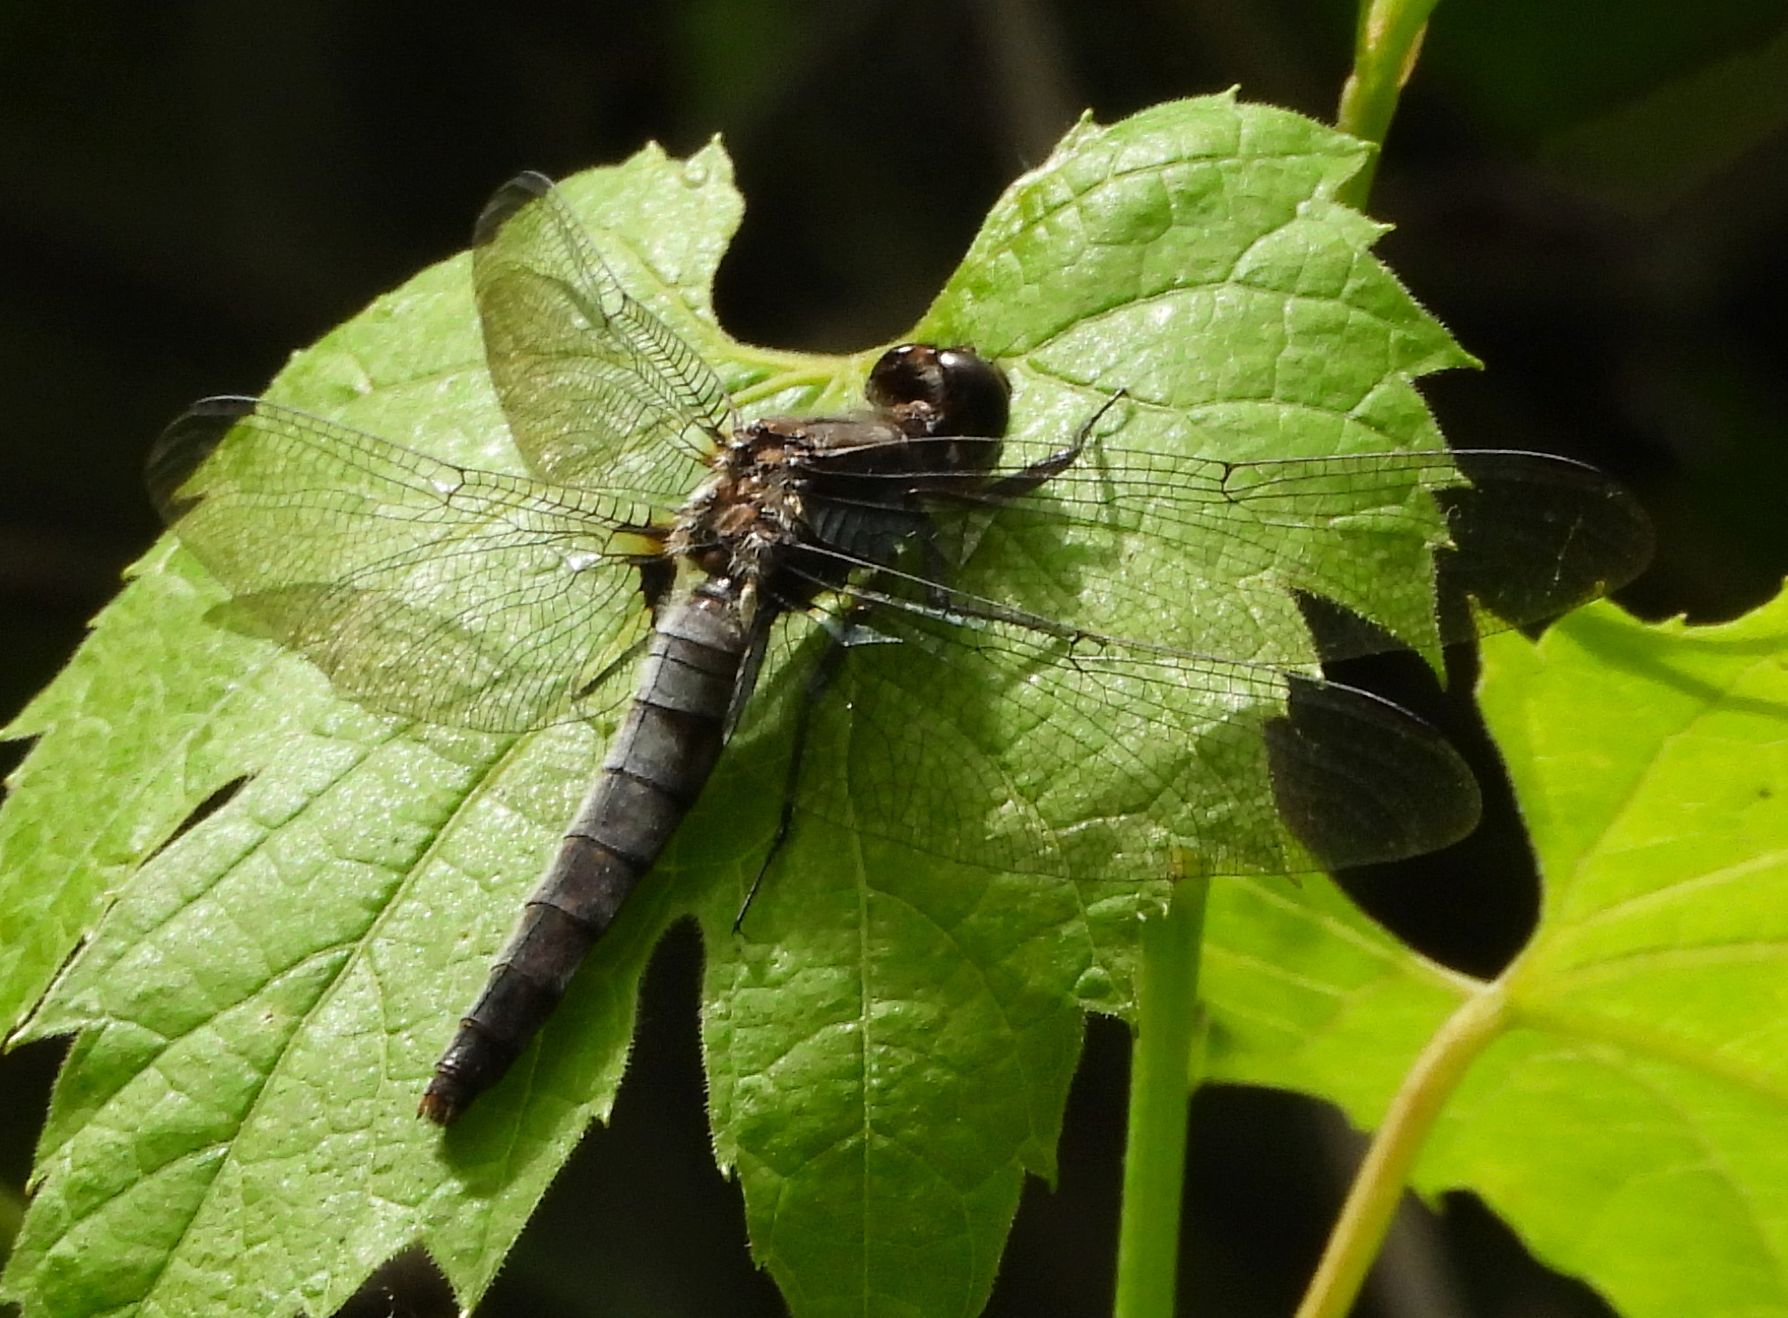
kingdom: Animalia
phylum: Arthropoda
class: Insecta
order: Odonata
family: Libellulidae
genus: Ladona
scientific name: Ladona julia
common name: Chalk-fronted corporal
